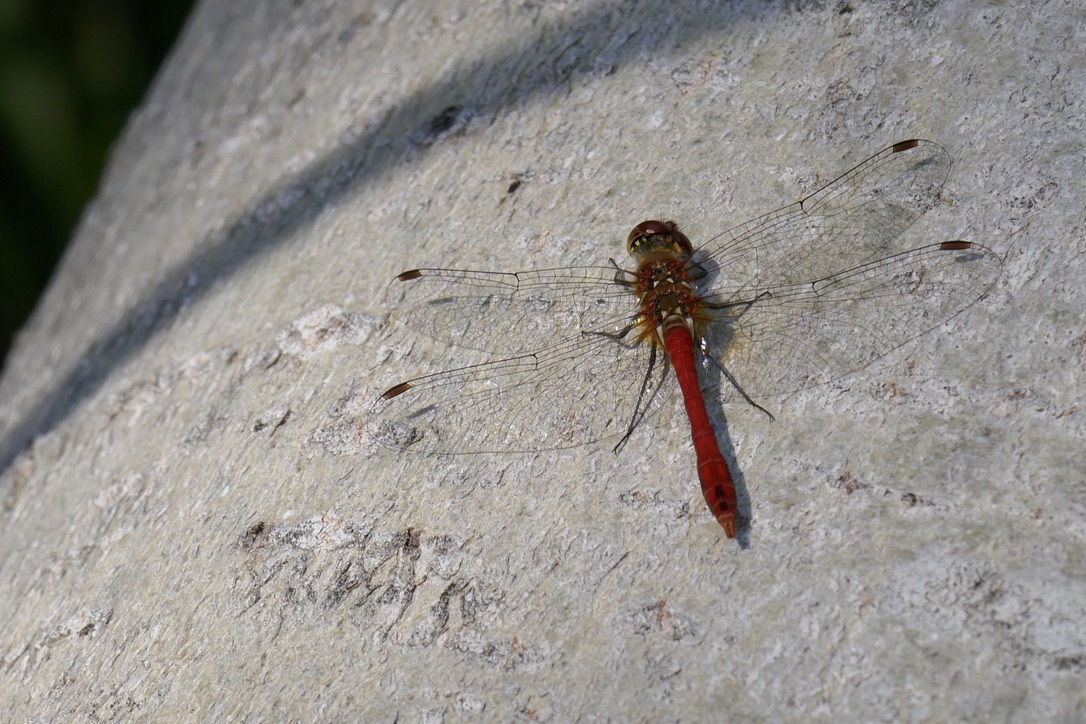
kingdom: Animalia
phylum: Arthropoda
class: Insecta
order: Odonata
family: Libellulidae
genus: Sympetrum
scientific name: Sympetrum sanguineum
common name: Ruddy darter
